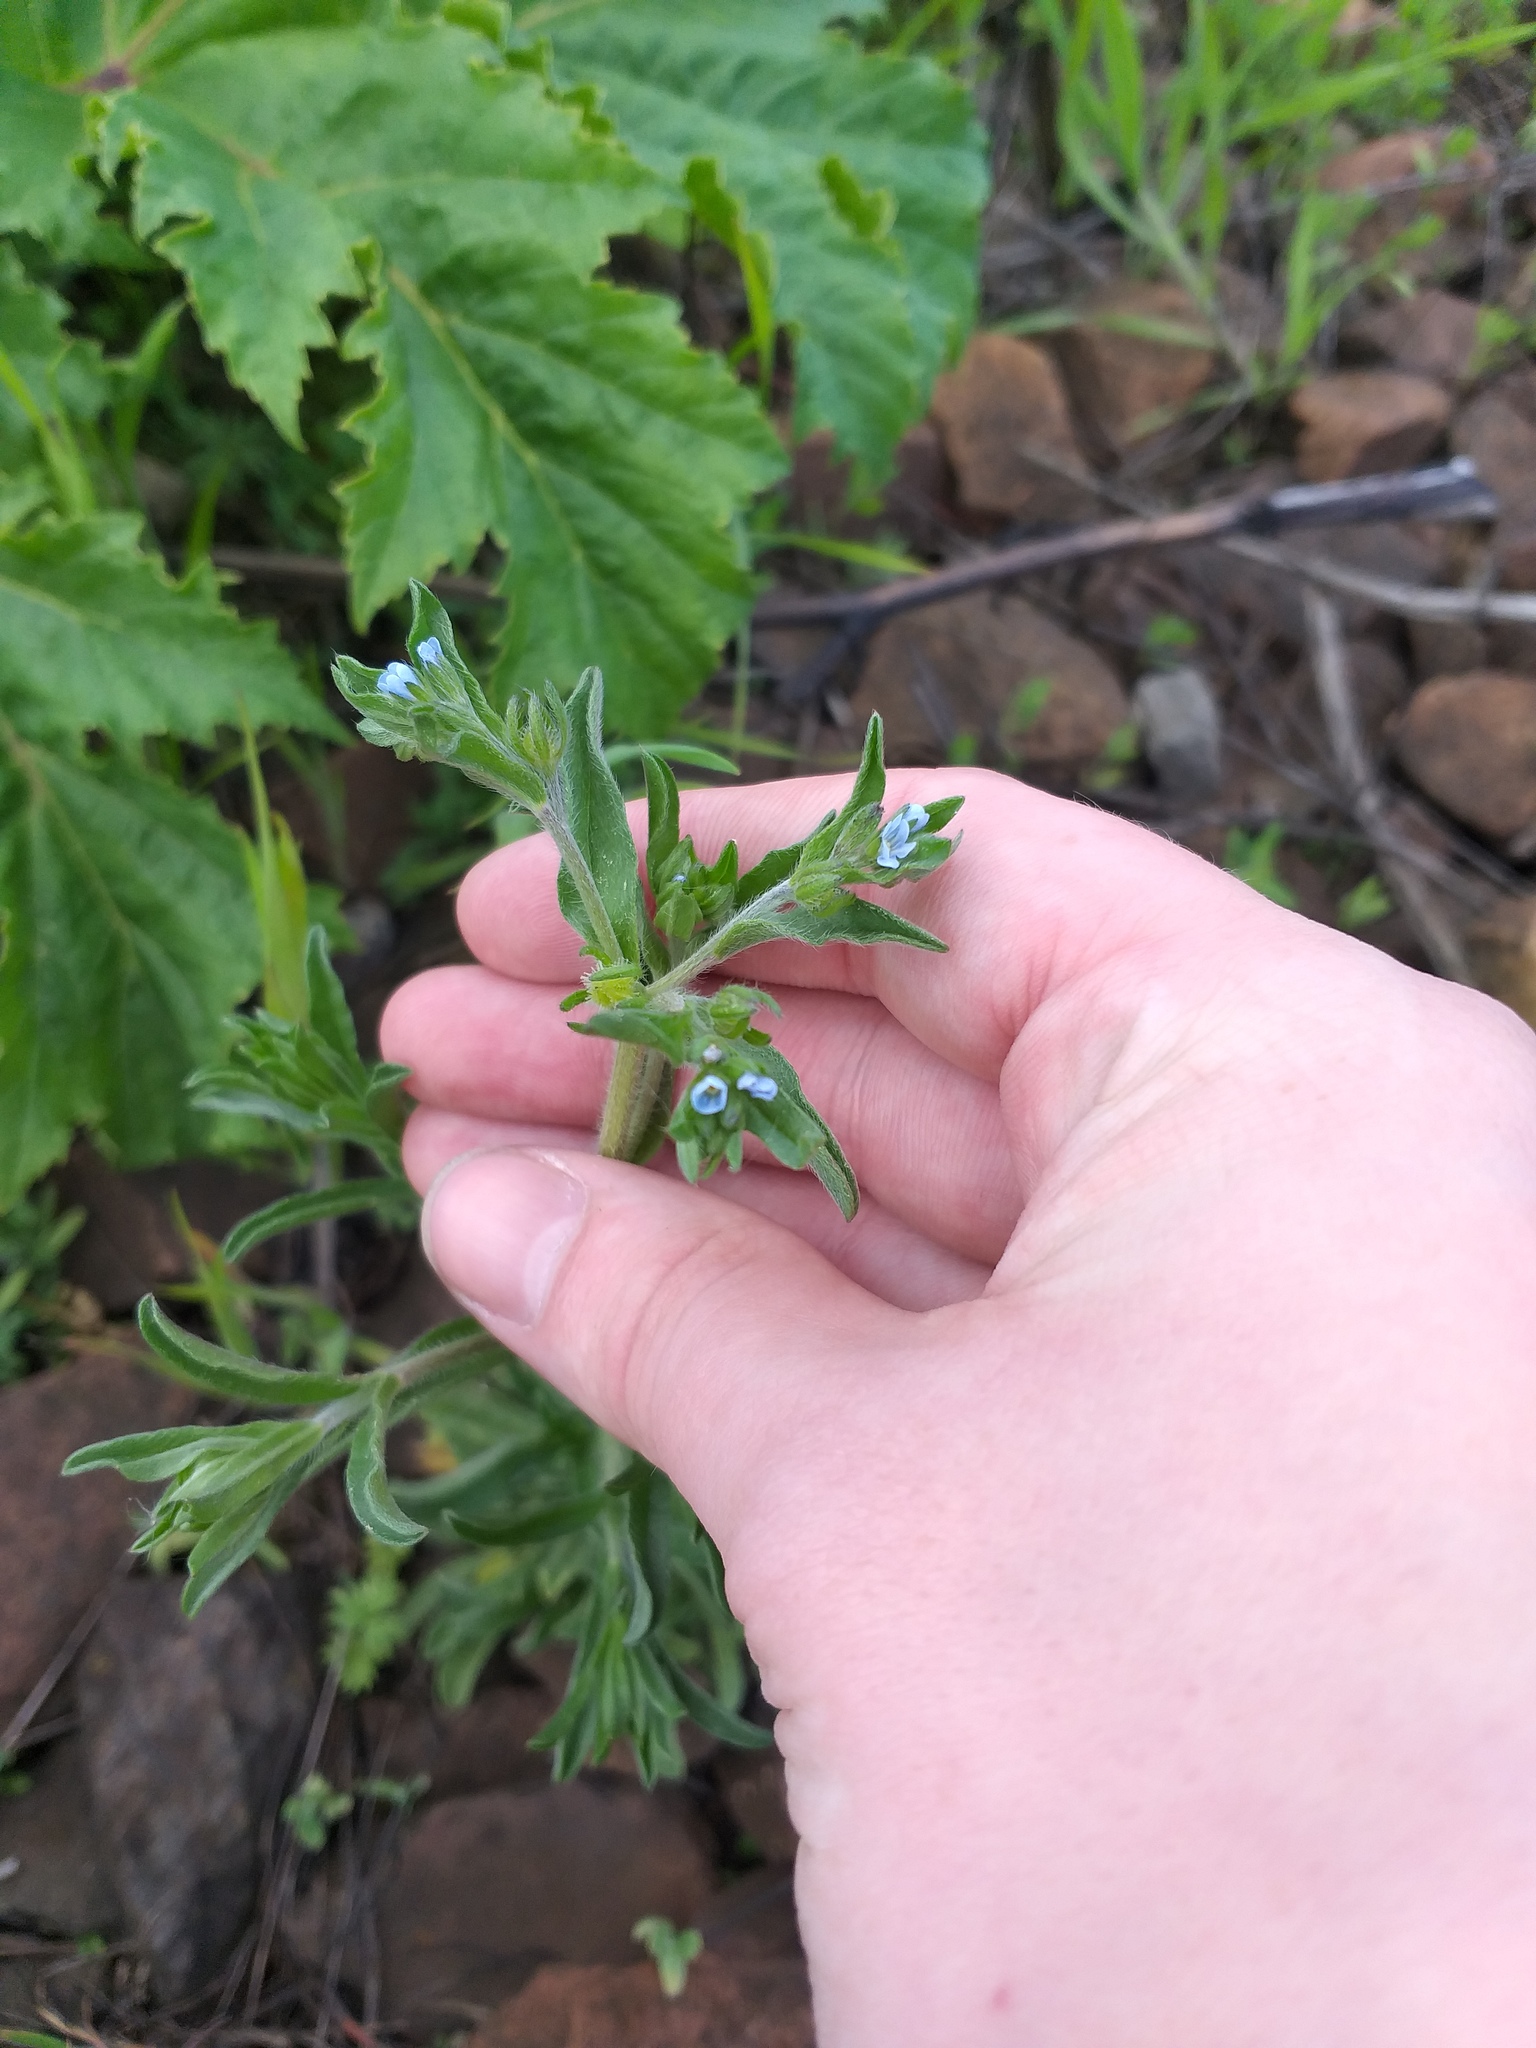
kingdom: Plantae
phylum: Tracheophyta
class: Magnoliopsida
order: Boraginales
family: Boraginaceae
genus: Lappula
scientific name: Lappula squarrosa
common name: European stickseed
